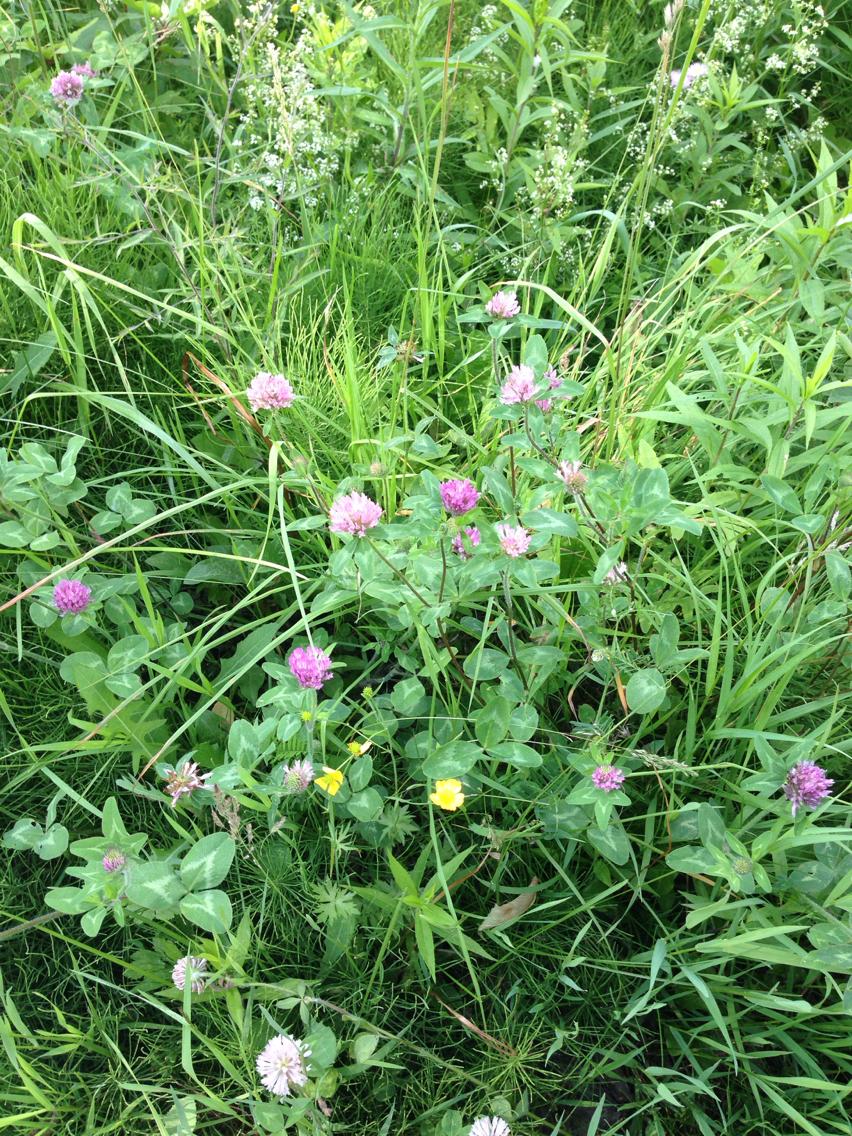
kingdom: Plantae
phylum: Tracheophyta
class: Magnoliopsida
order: Fabales
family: Fabaceae
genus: Trifolium
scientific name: Trifolium pratense
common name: Red clover
